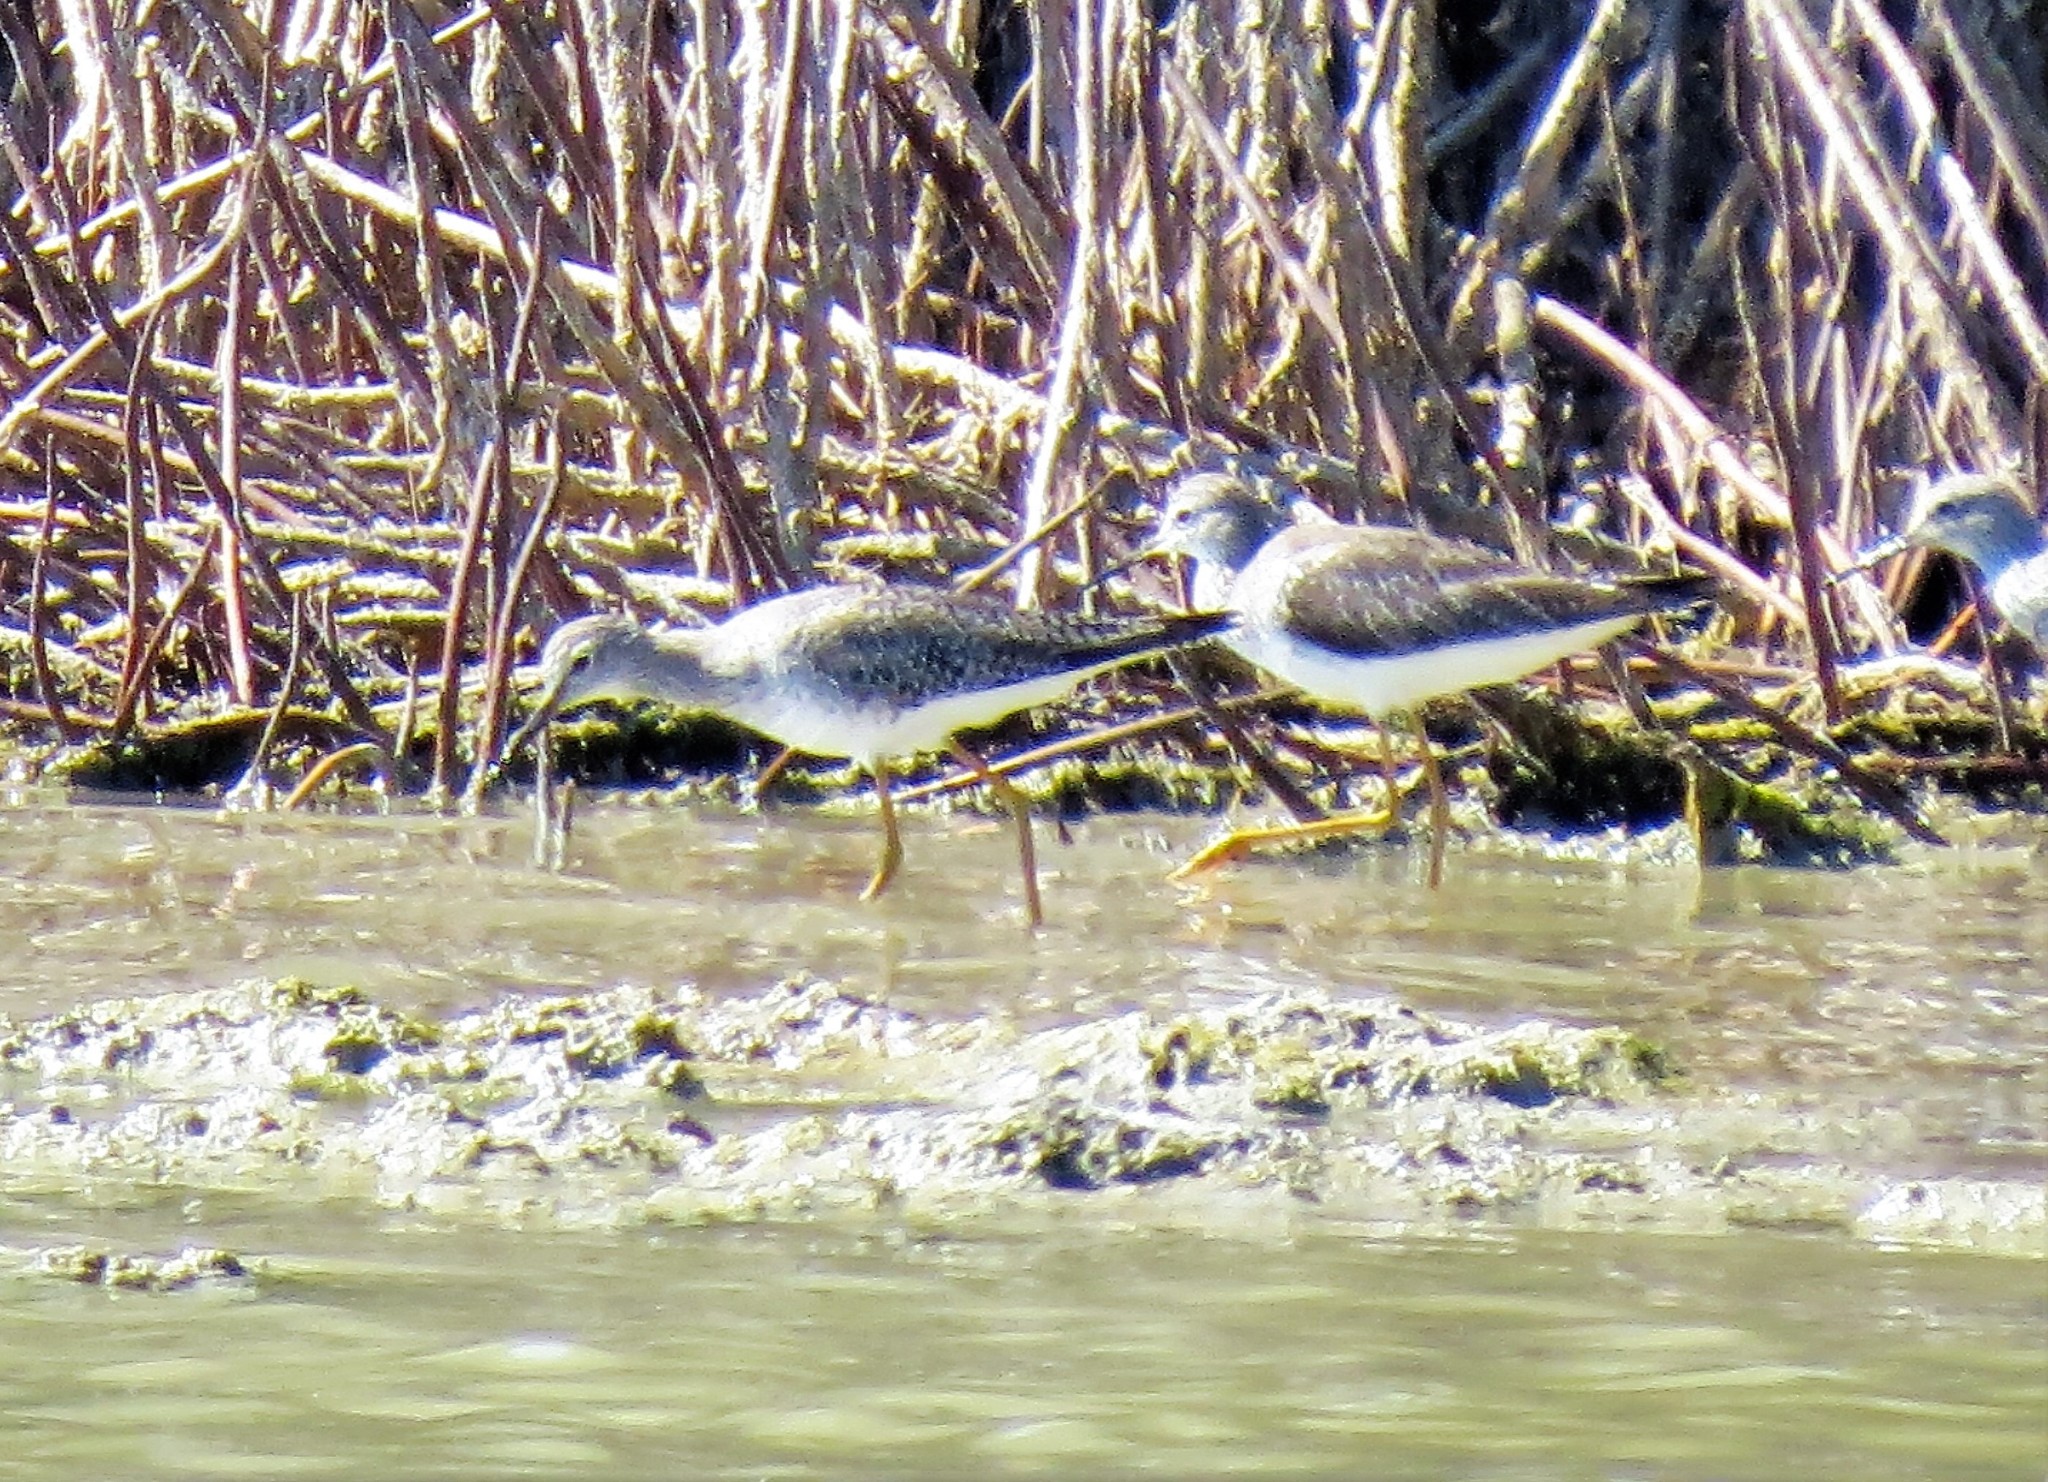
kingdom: Animalia
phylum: Chordata
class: Aves
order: Charadriiformes
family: Scolopacidae
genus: Tringa
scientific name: Tringa flavipes
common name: Lesser yellowlegs
